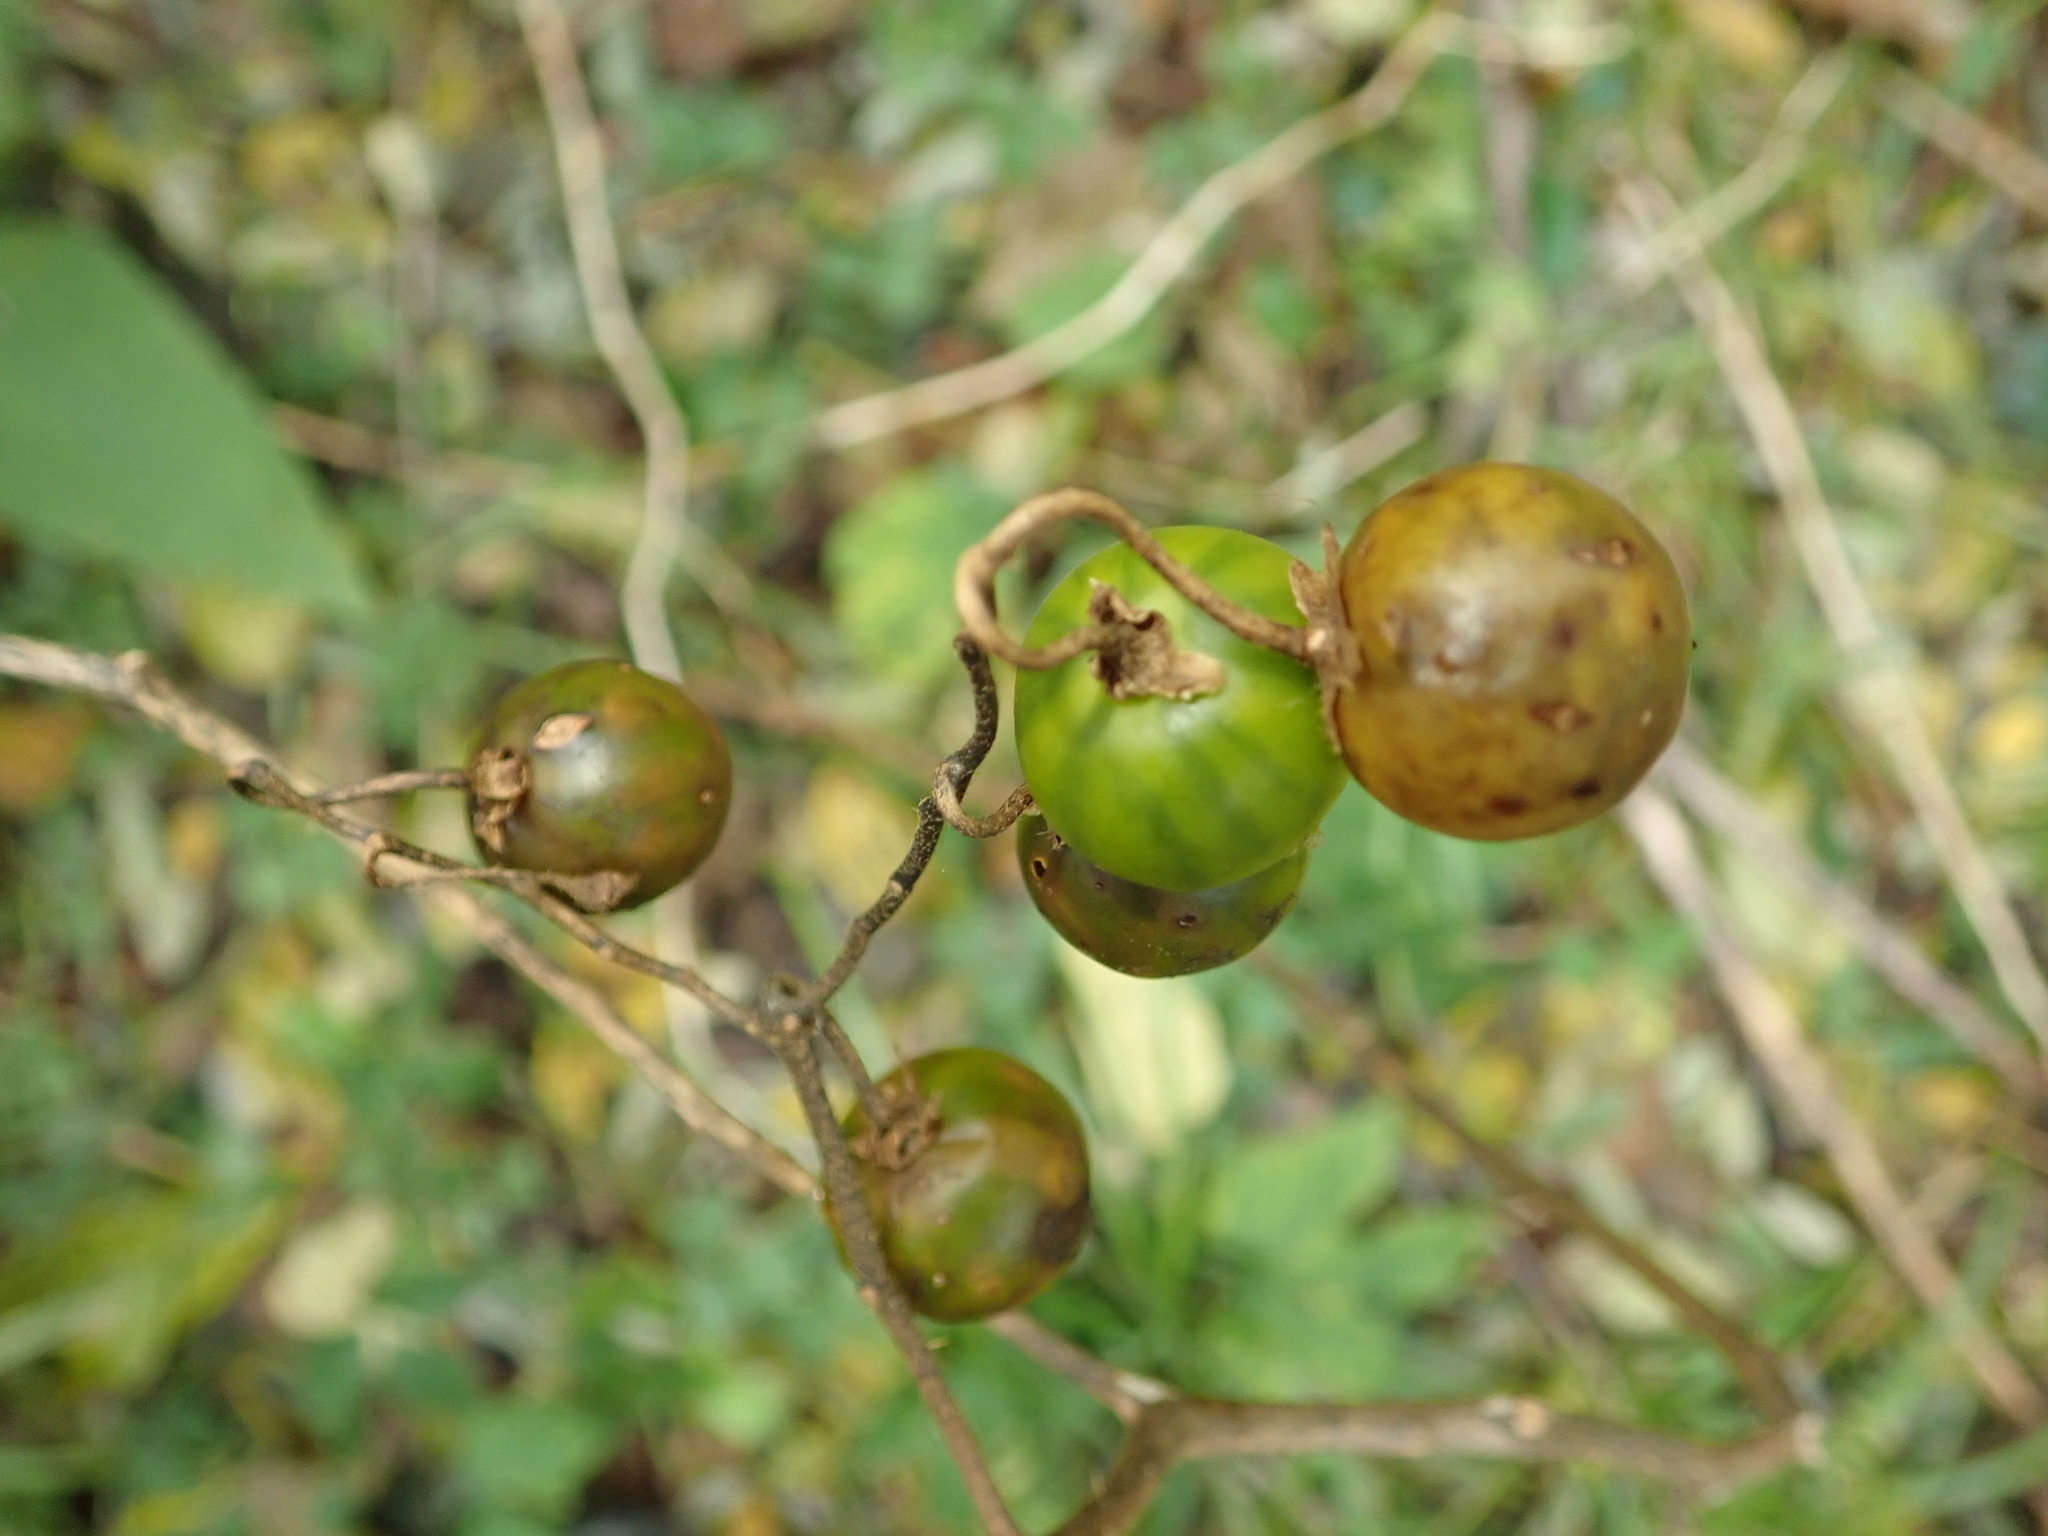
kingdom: Plantae
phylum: Tracheophyta
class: Magnoliopsida
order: Solanales
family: Solanaceae
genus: Solanum
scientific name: Solanum carolinense
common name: Horse-nettle
